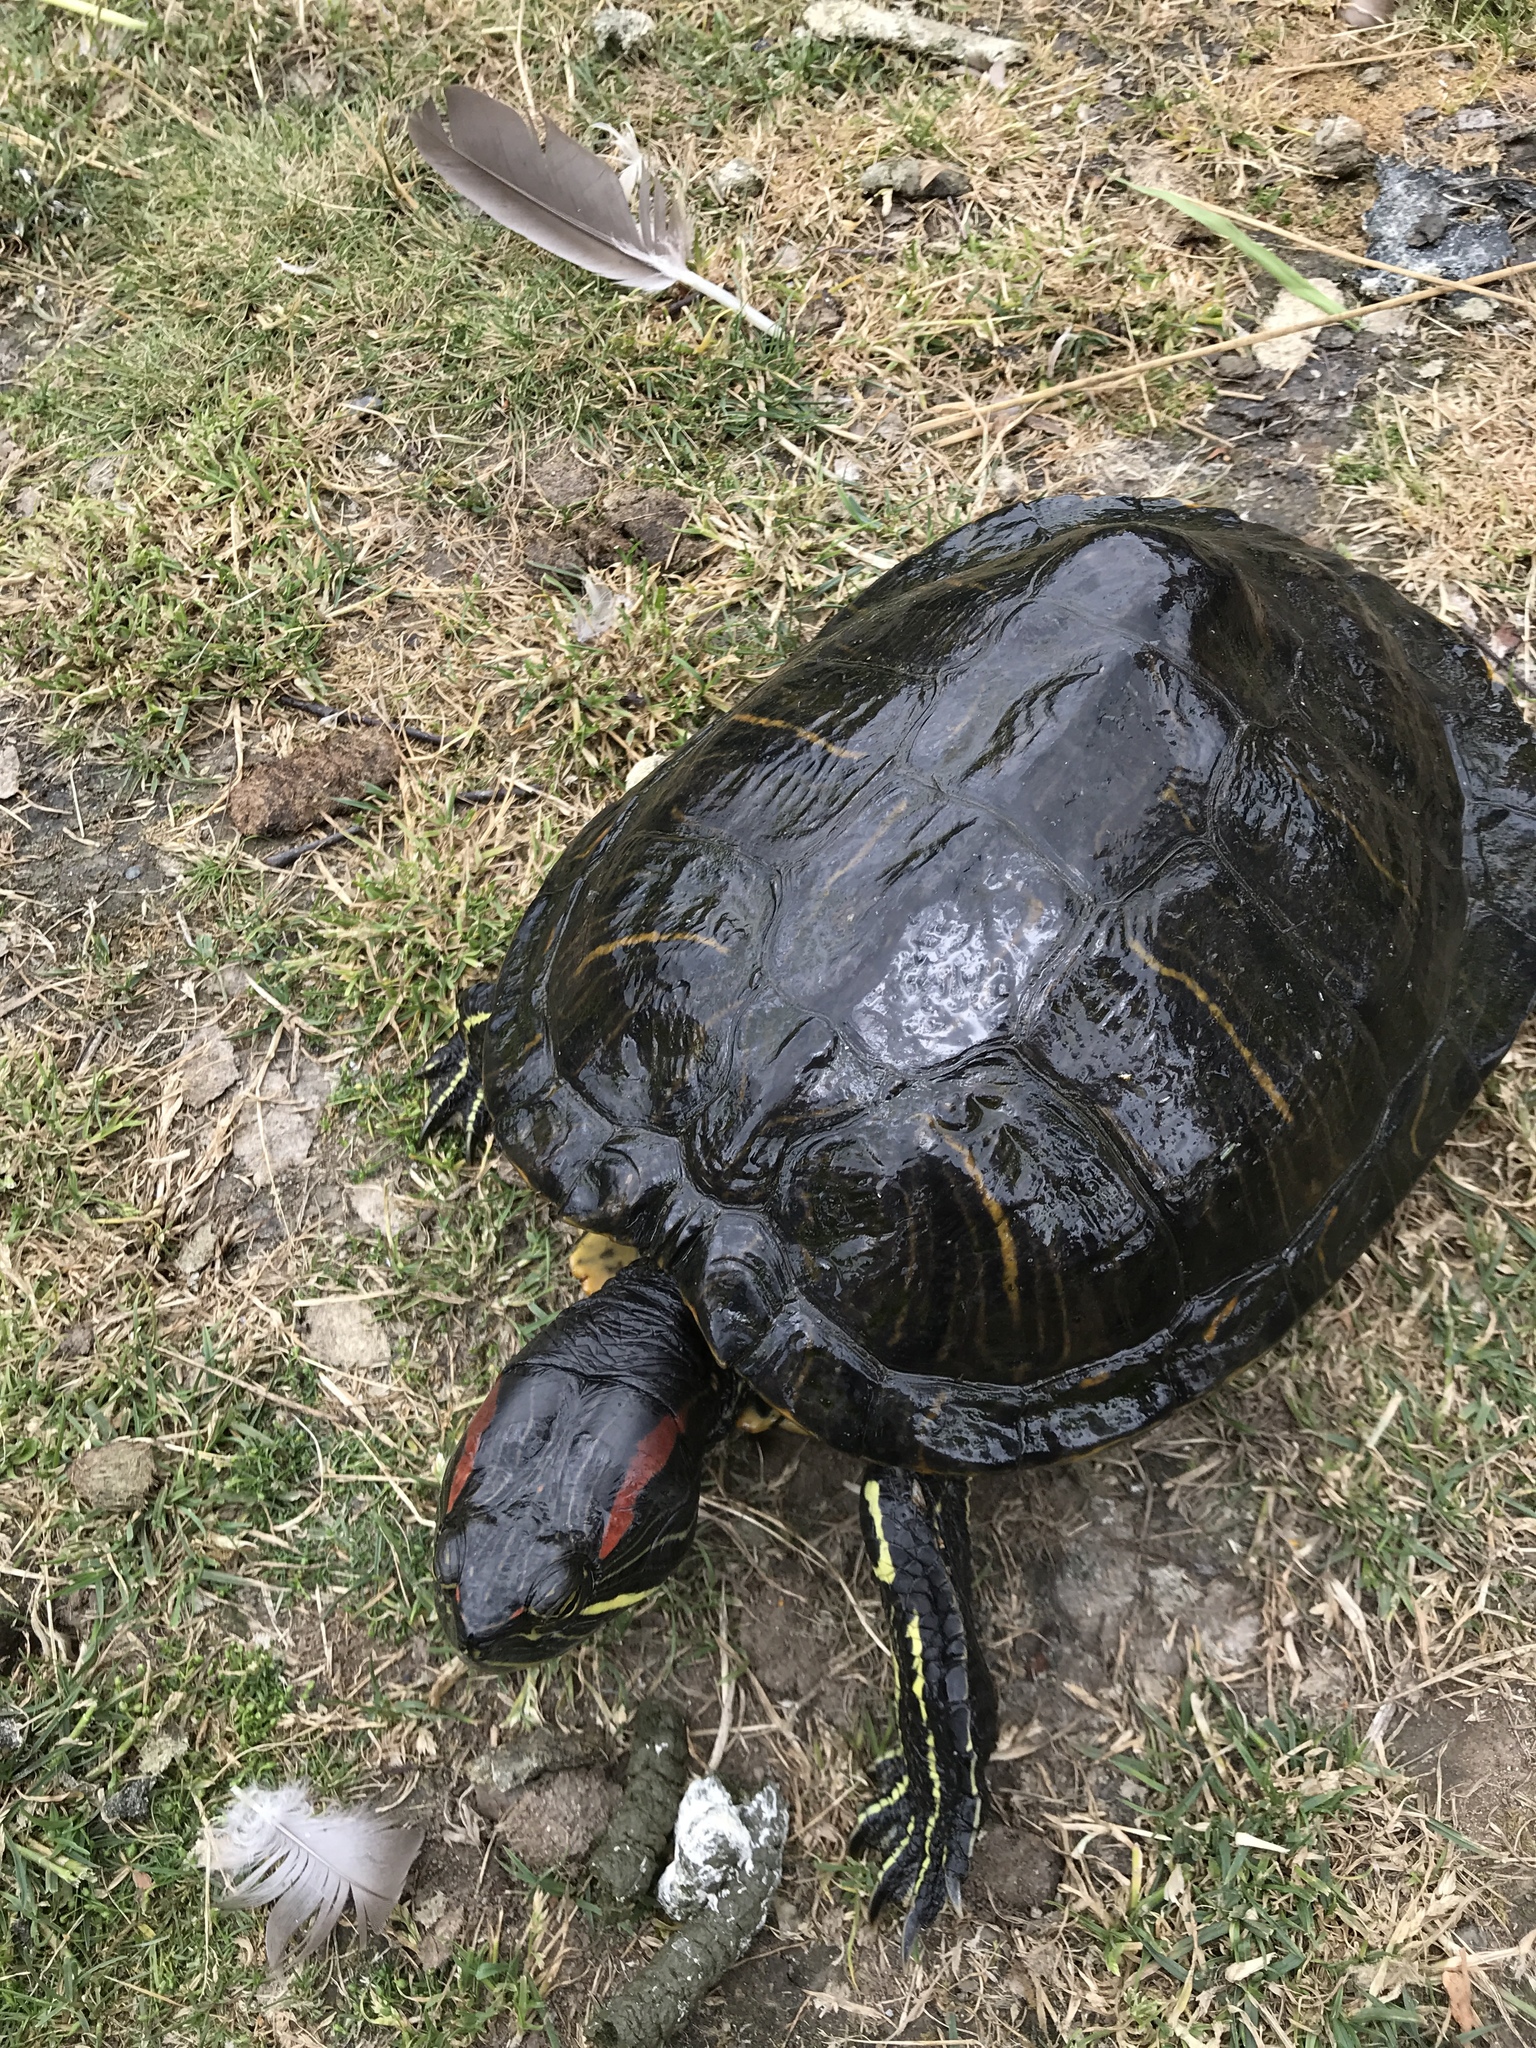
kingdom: Animalia
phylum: Chordata
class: Testudines
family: Emydidae
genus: Trachemys
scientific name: Trachemys scripta
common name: Slider
